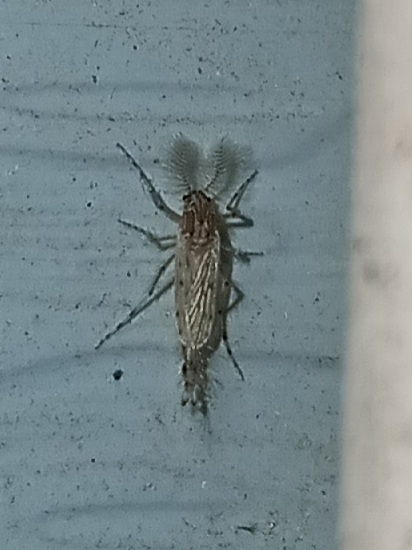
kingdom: Animalia
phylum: Arthropoda
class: Insecta
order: Diptera
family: Chaoboridae
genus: Chaoborus
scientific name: Chaoborus punctipennis
